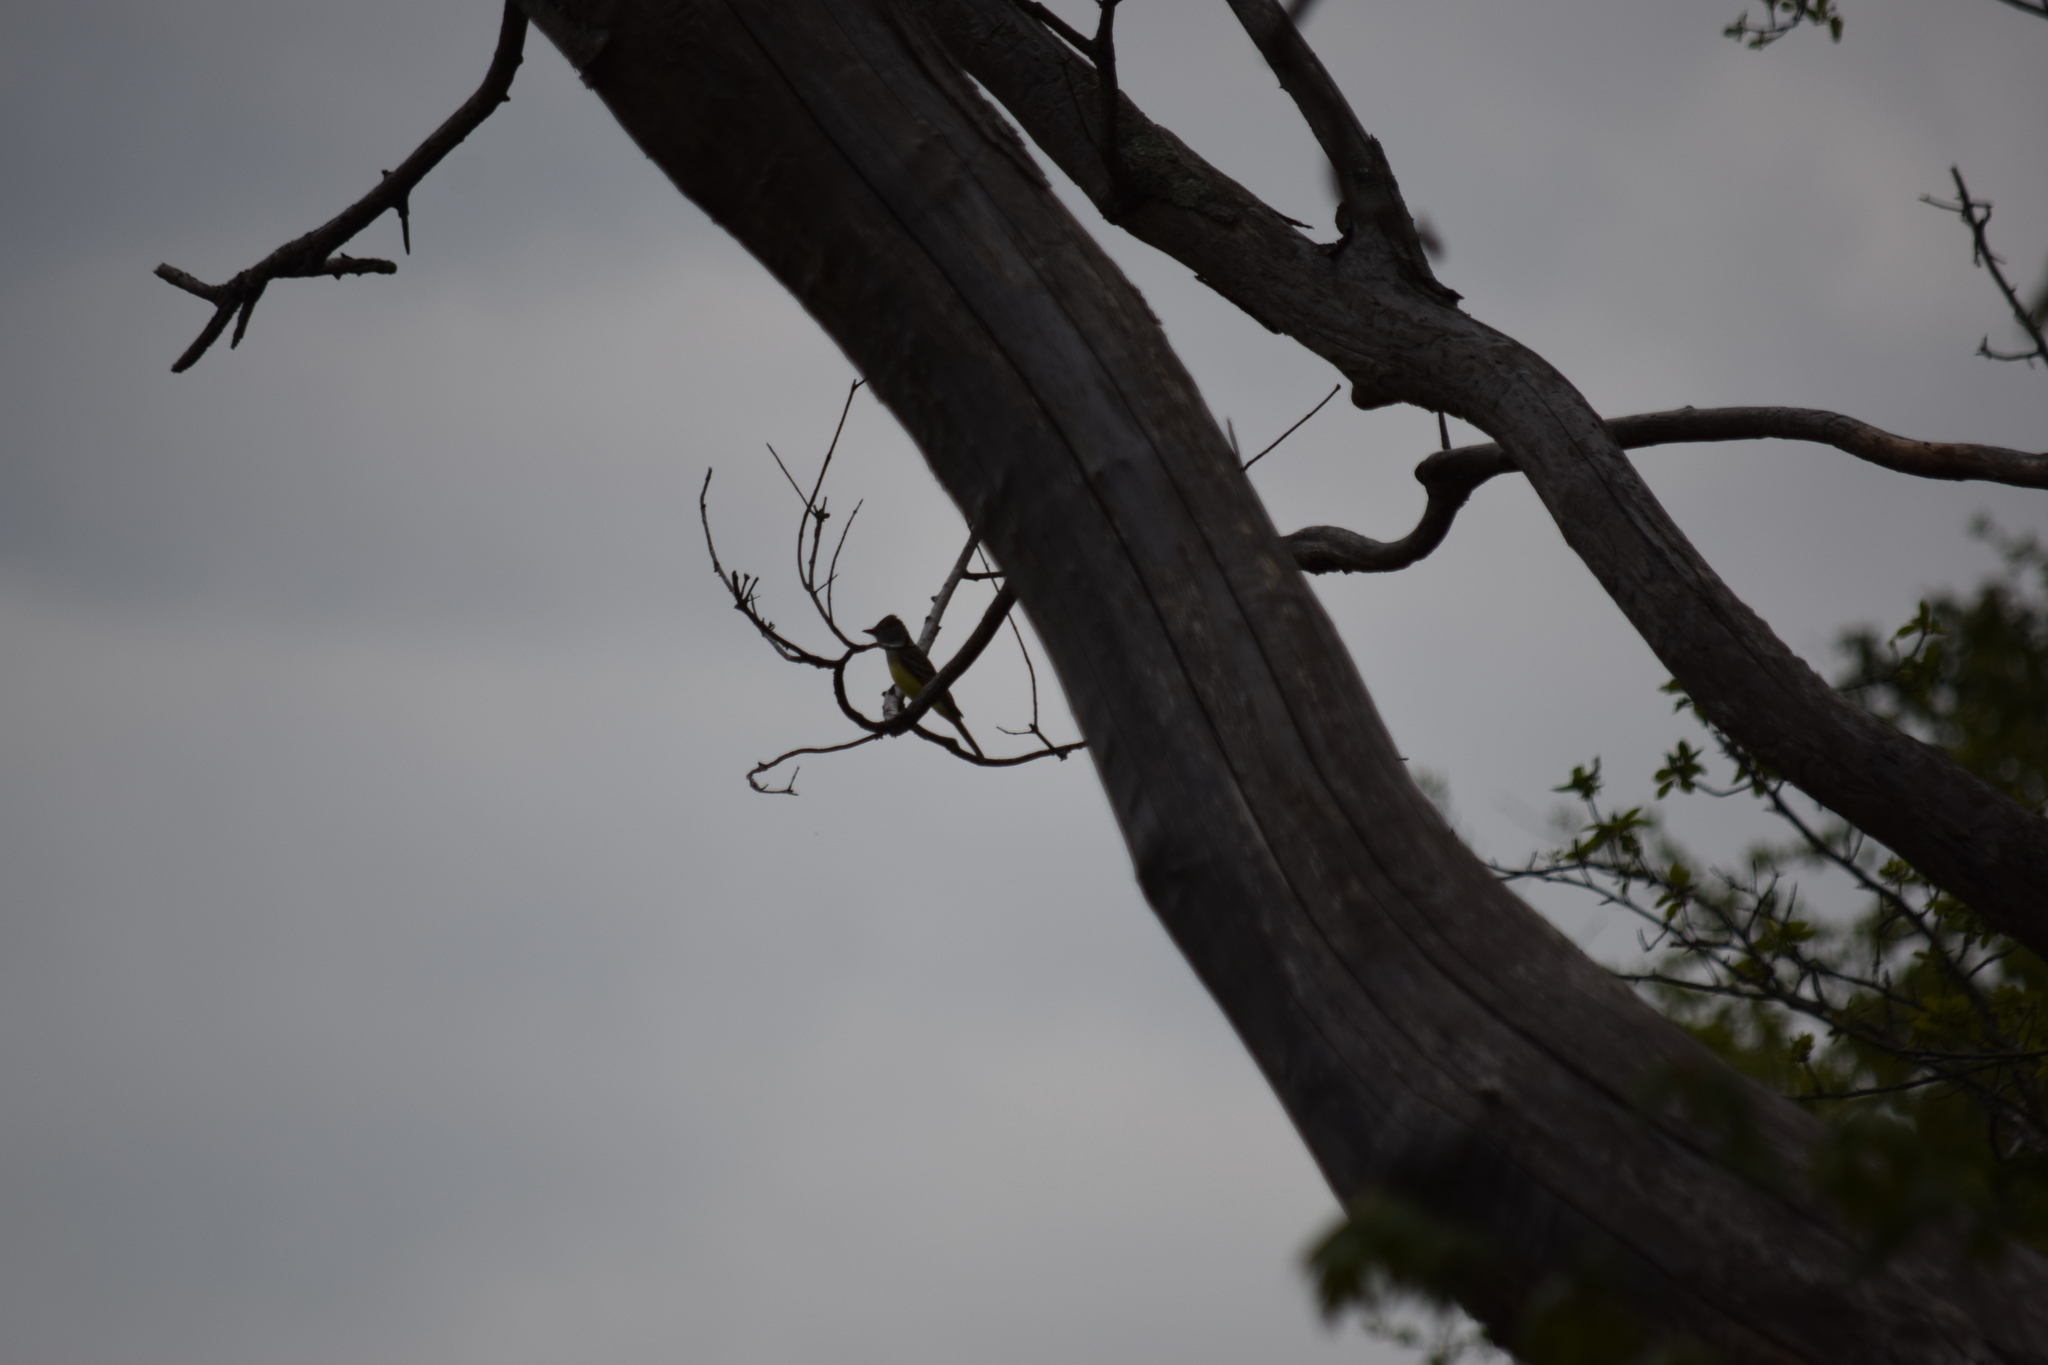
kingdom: Animalia
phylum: Chordata
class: Aves
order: Passeriformes
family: Tyrannidae
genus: Myiarchus
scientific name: Myiarchus crinitus
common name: Great crested flycatcher
